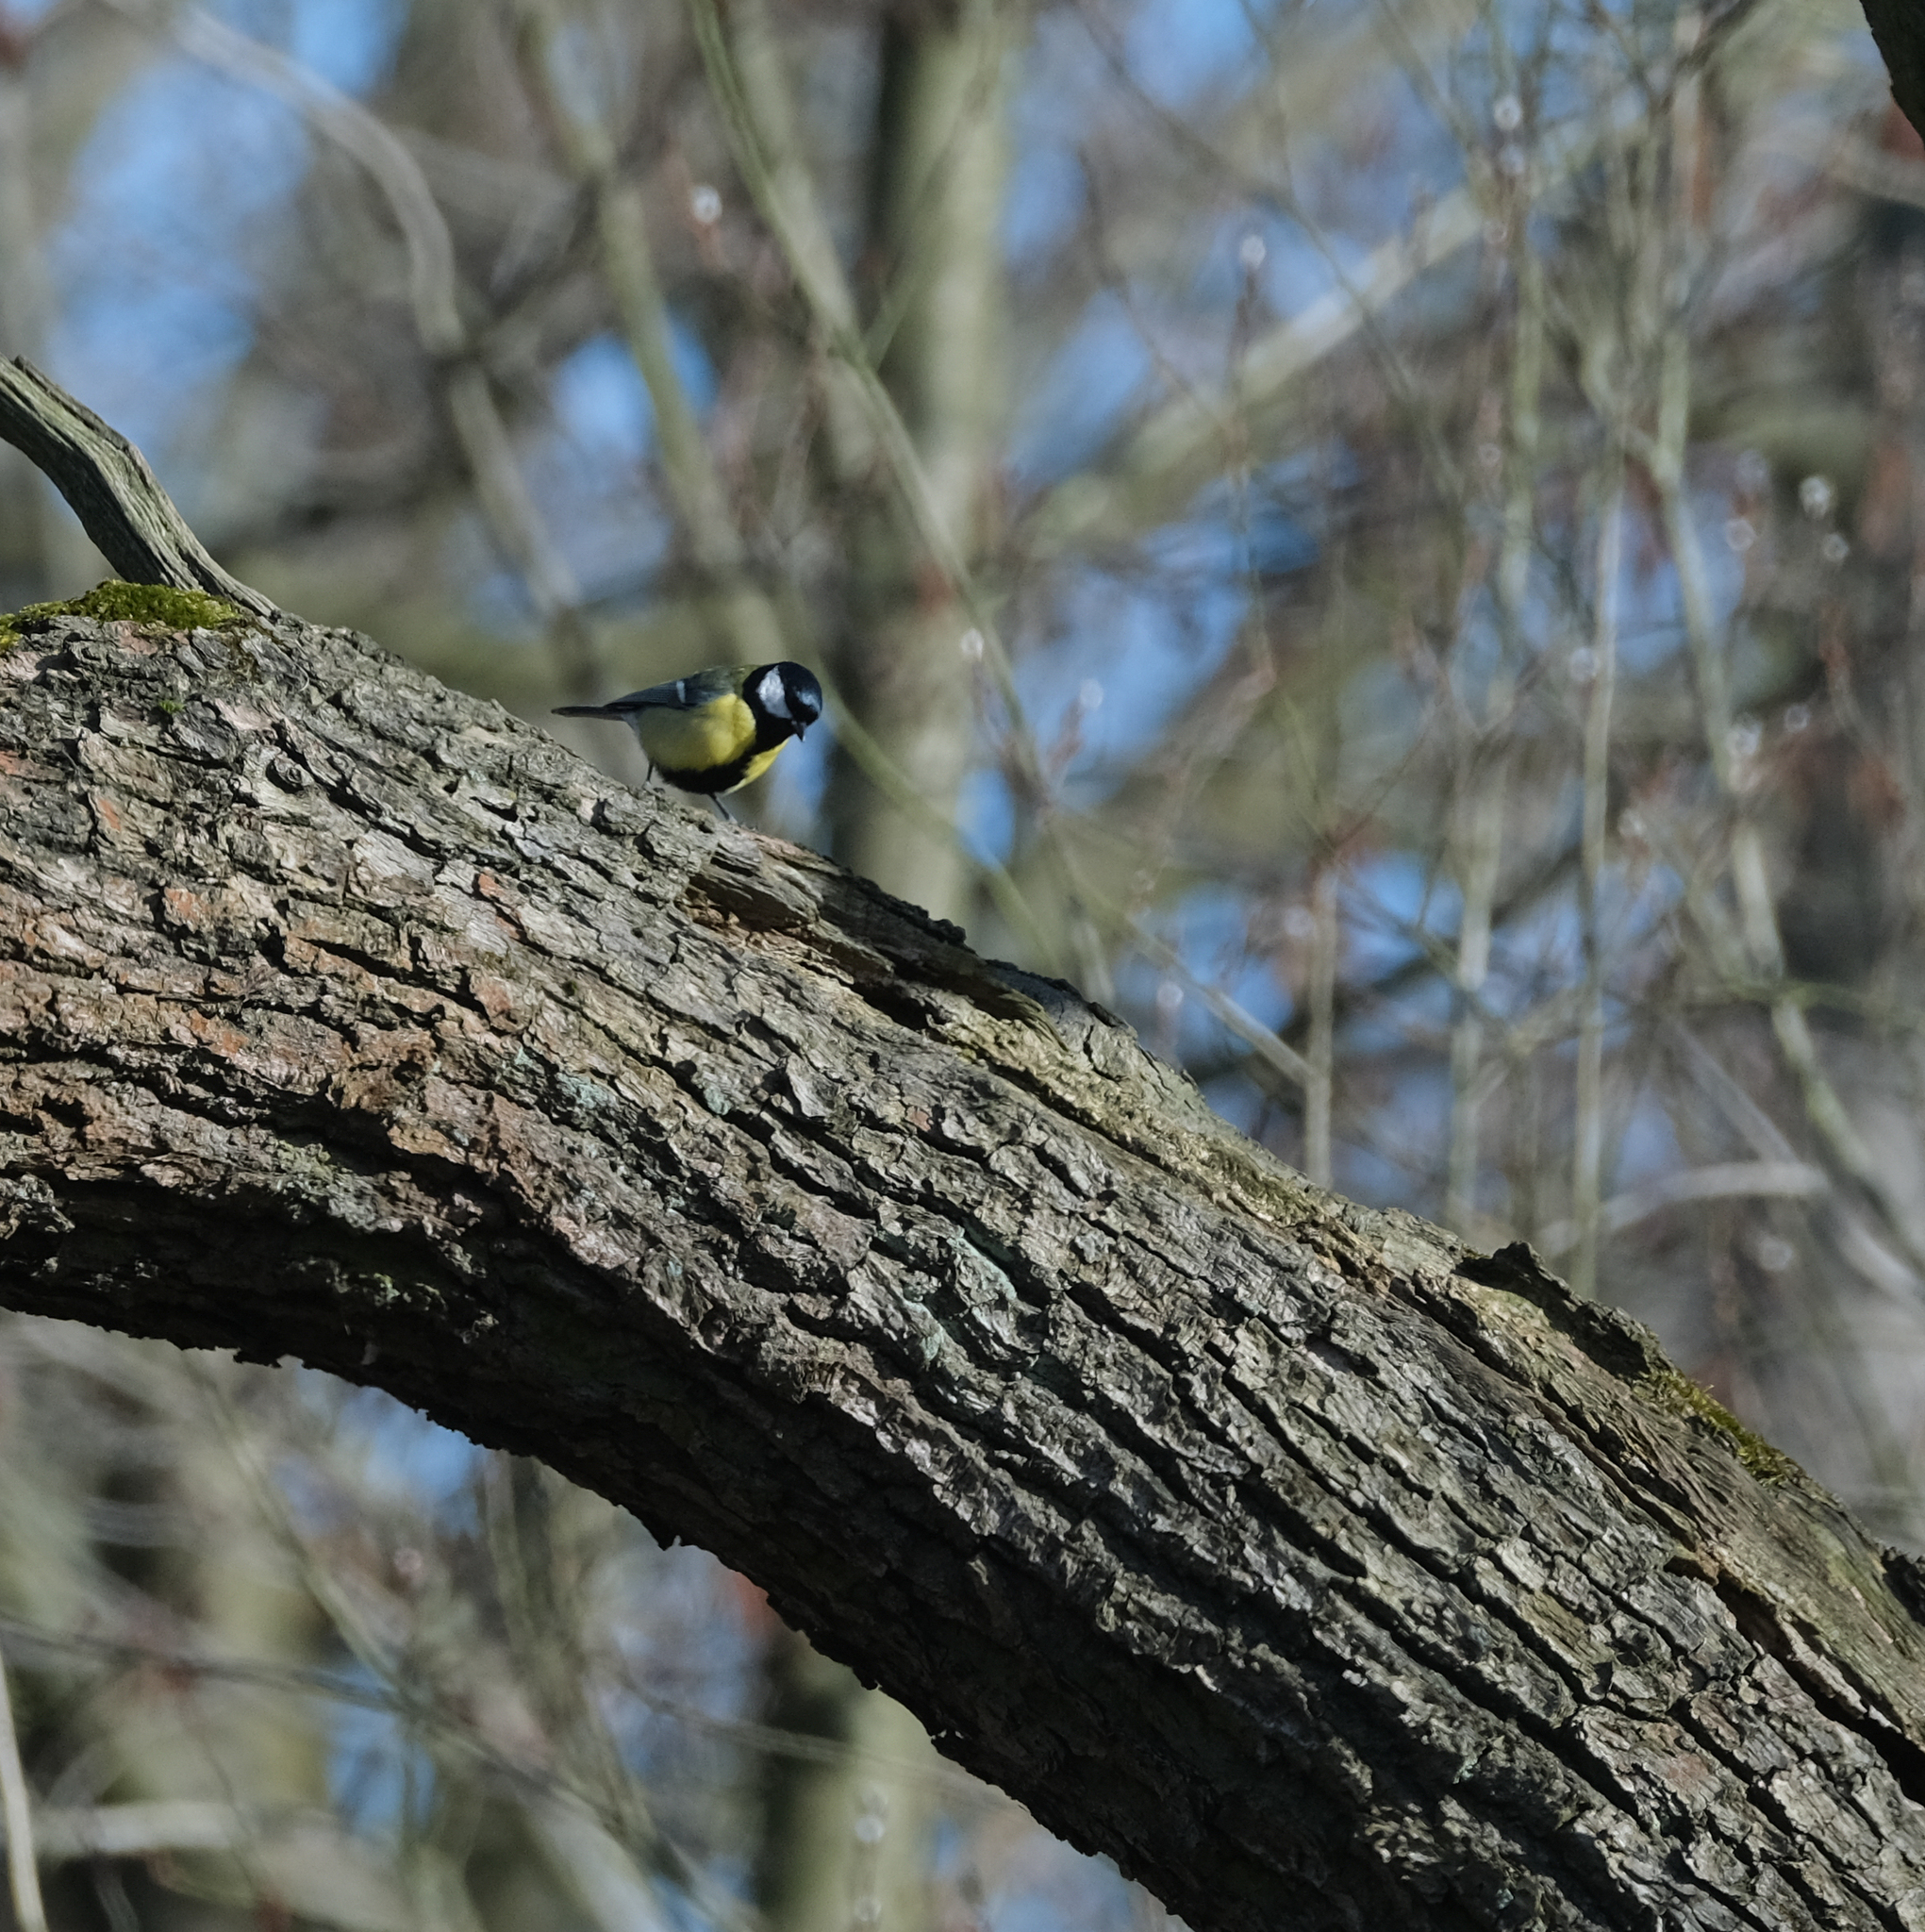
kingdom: Animalia
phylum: Chordata
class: Aves
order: Passeriformes
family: Paridae
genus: Parus
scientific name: Parus major
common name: Great tit
